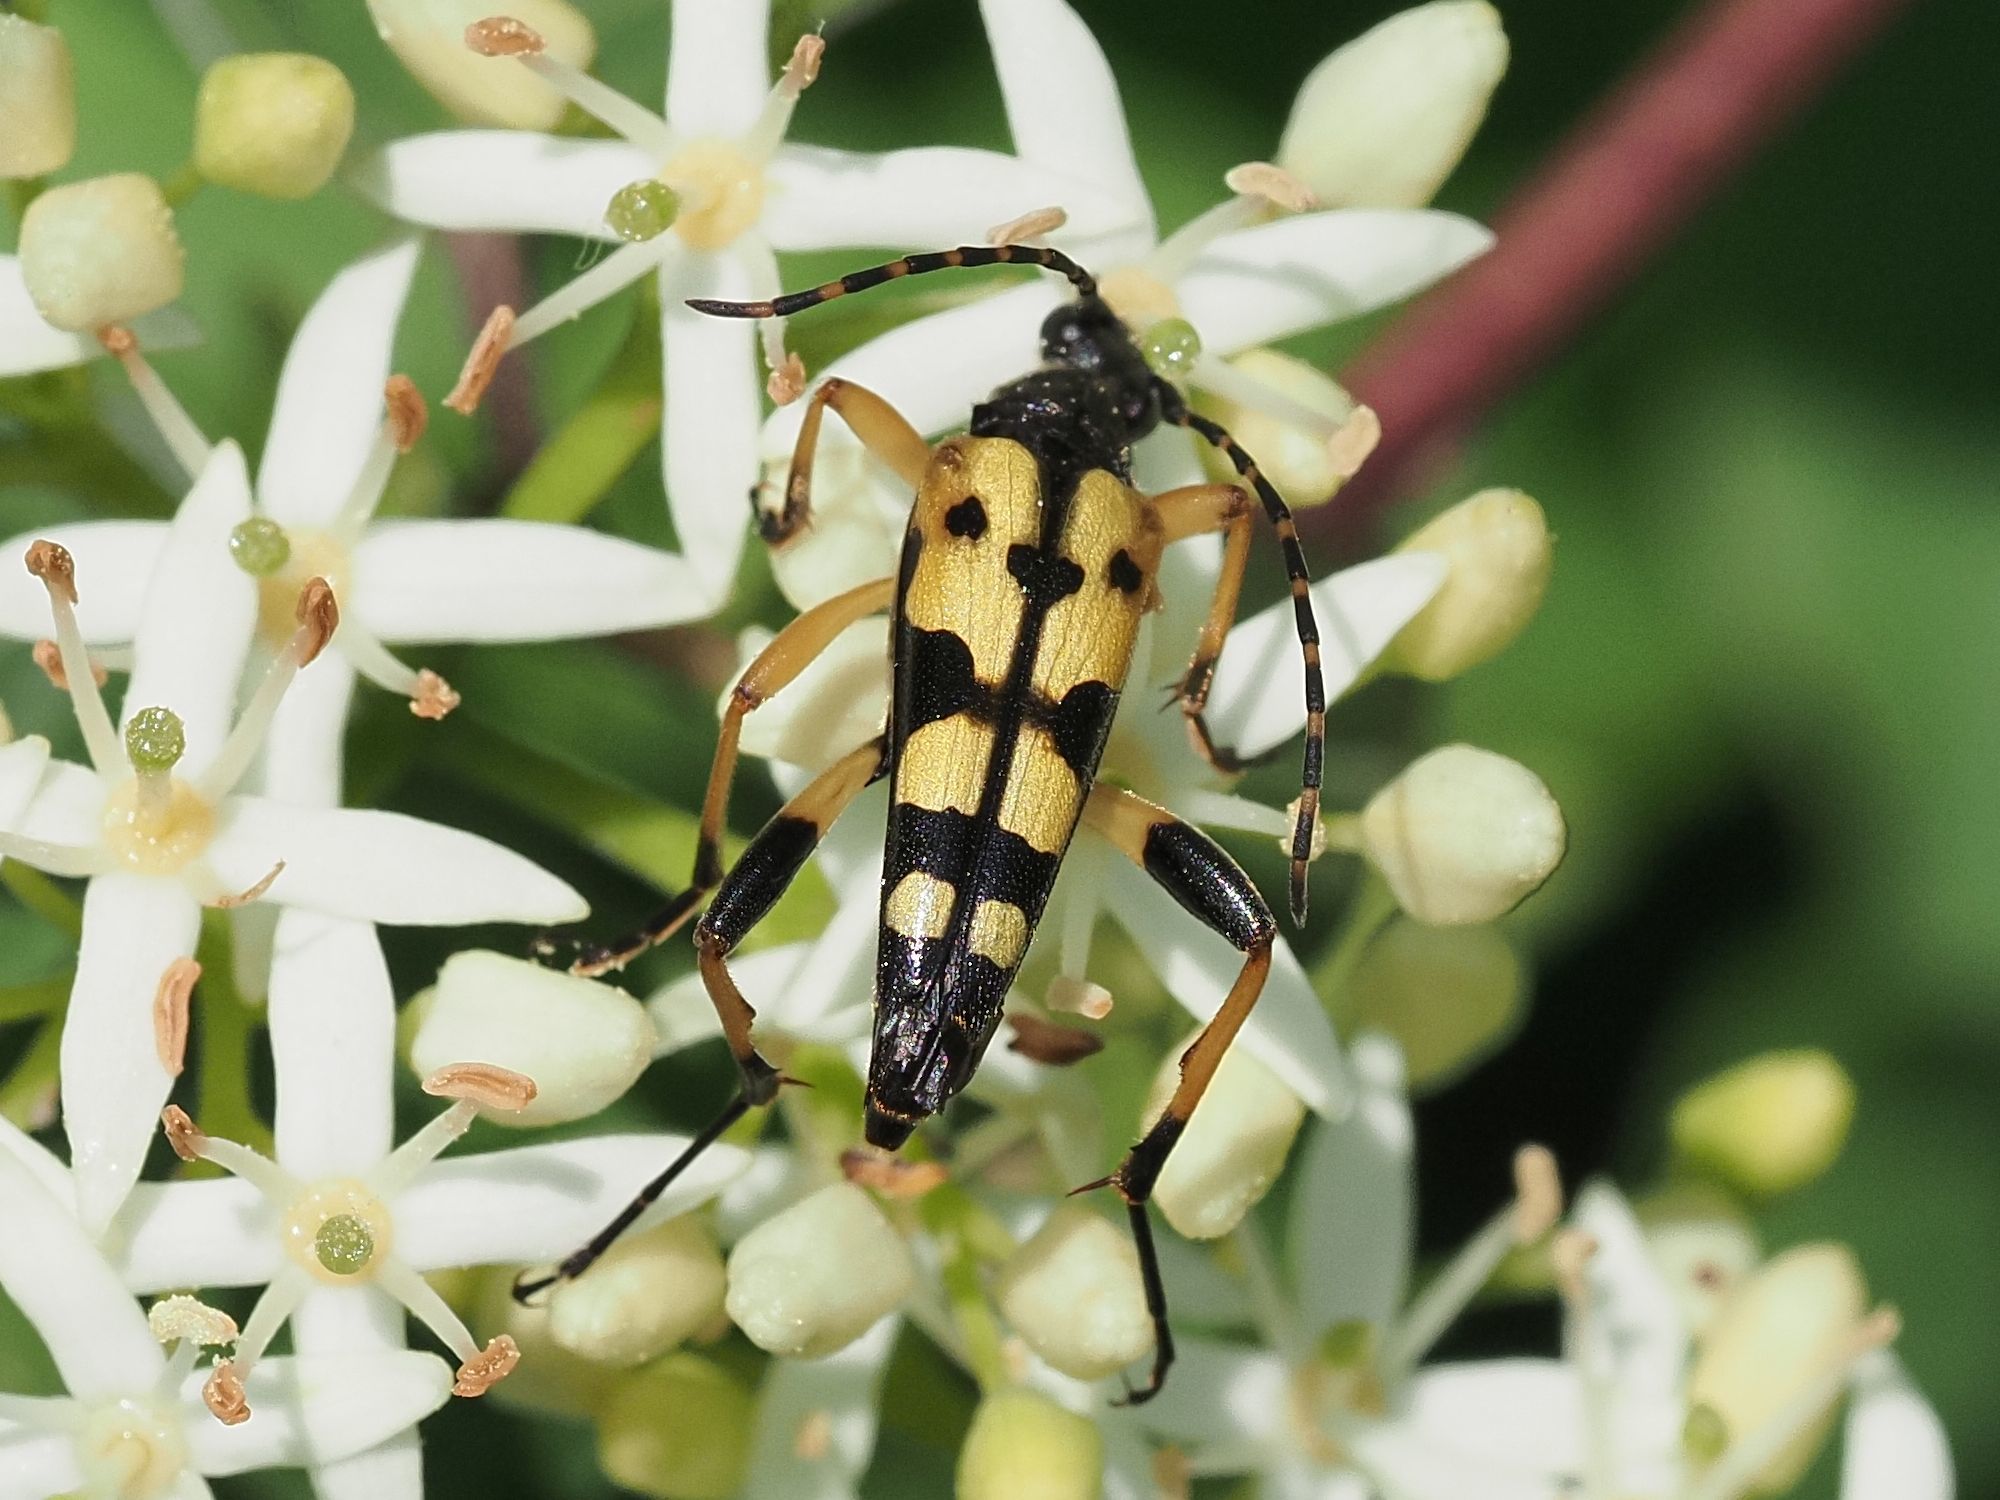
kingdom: Animalia
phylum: Arthropoda
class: Insecta
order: Coleoptera
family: Cerambycidae
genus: Rutpela
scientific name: Rutpela maculata
